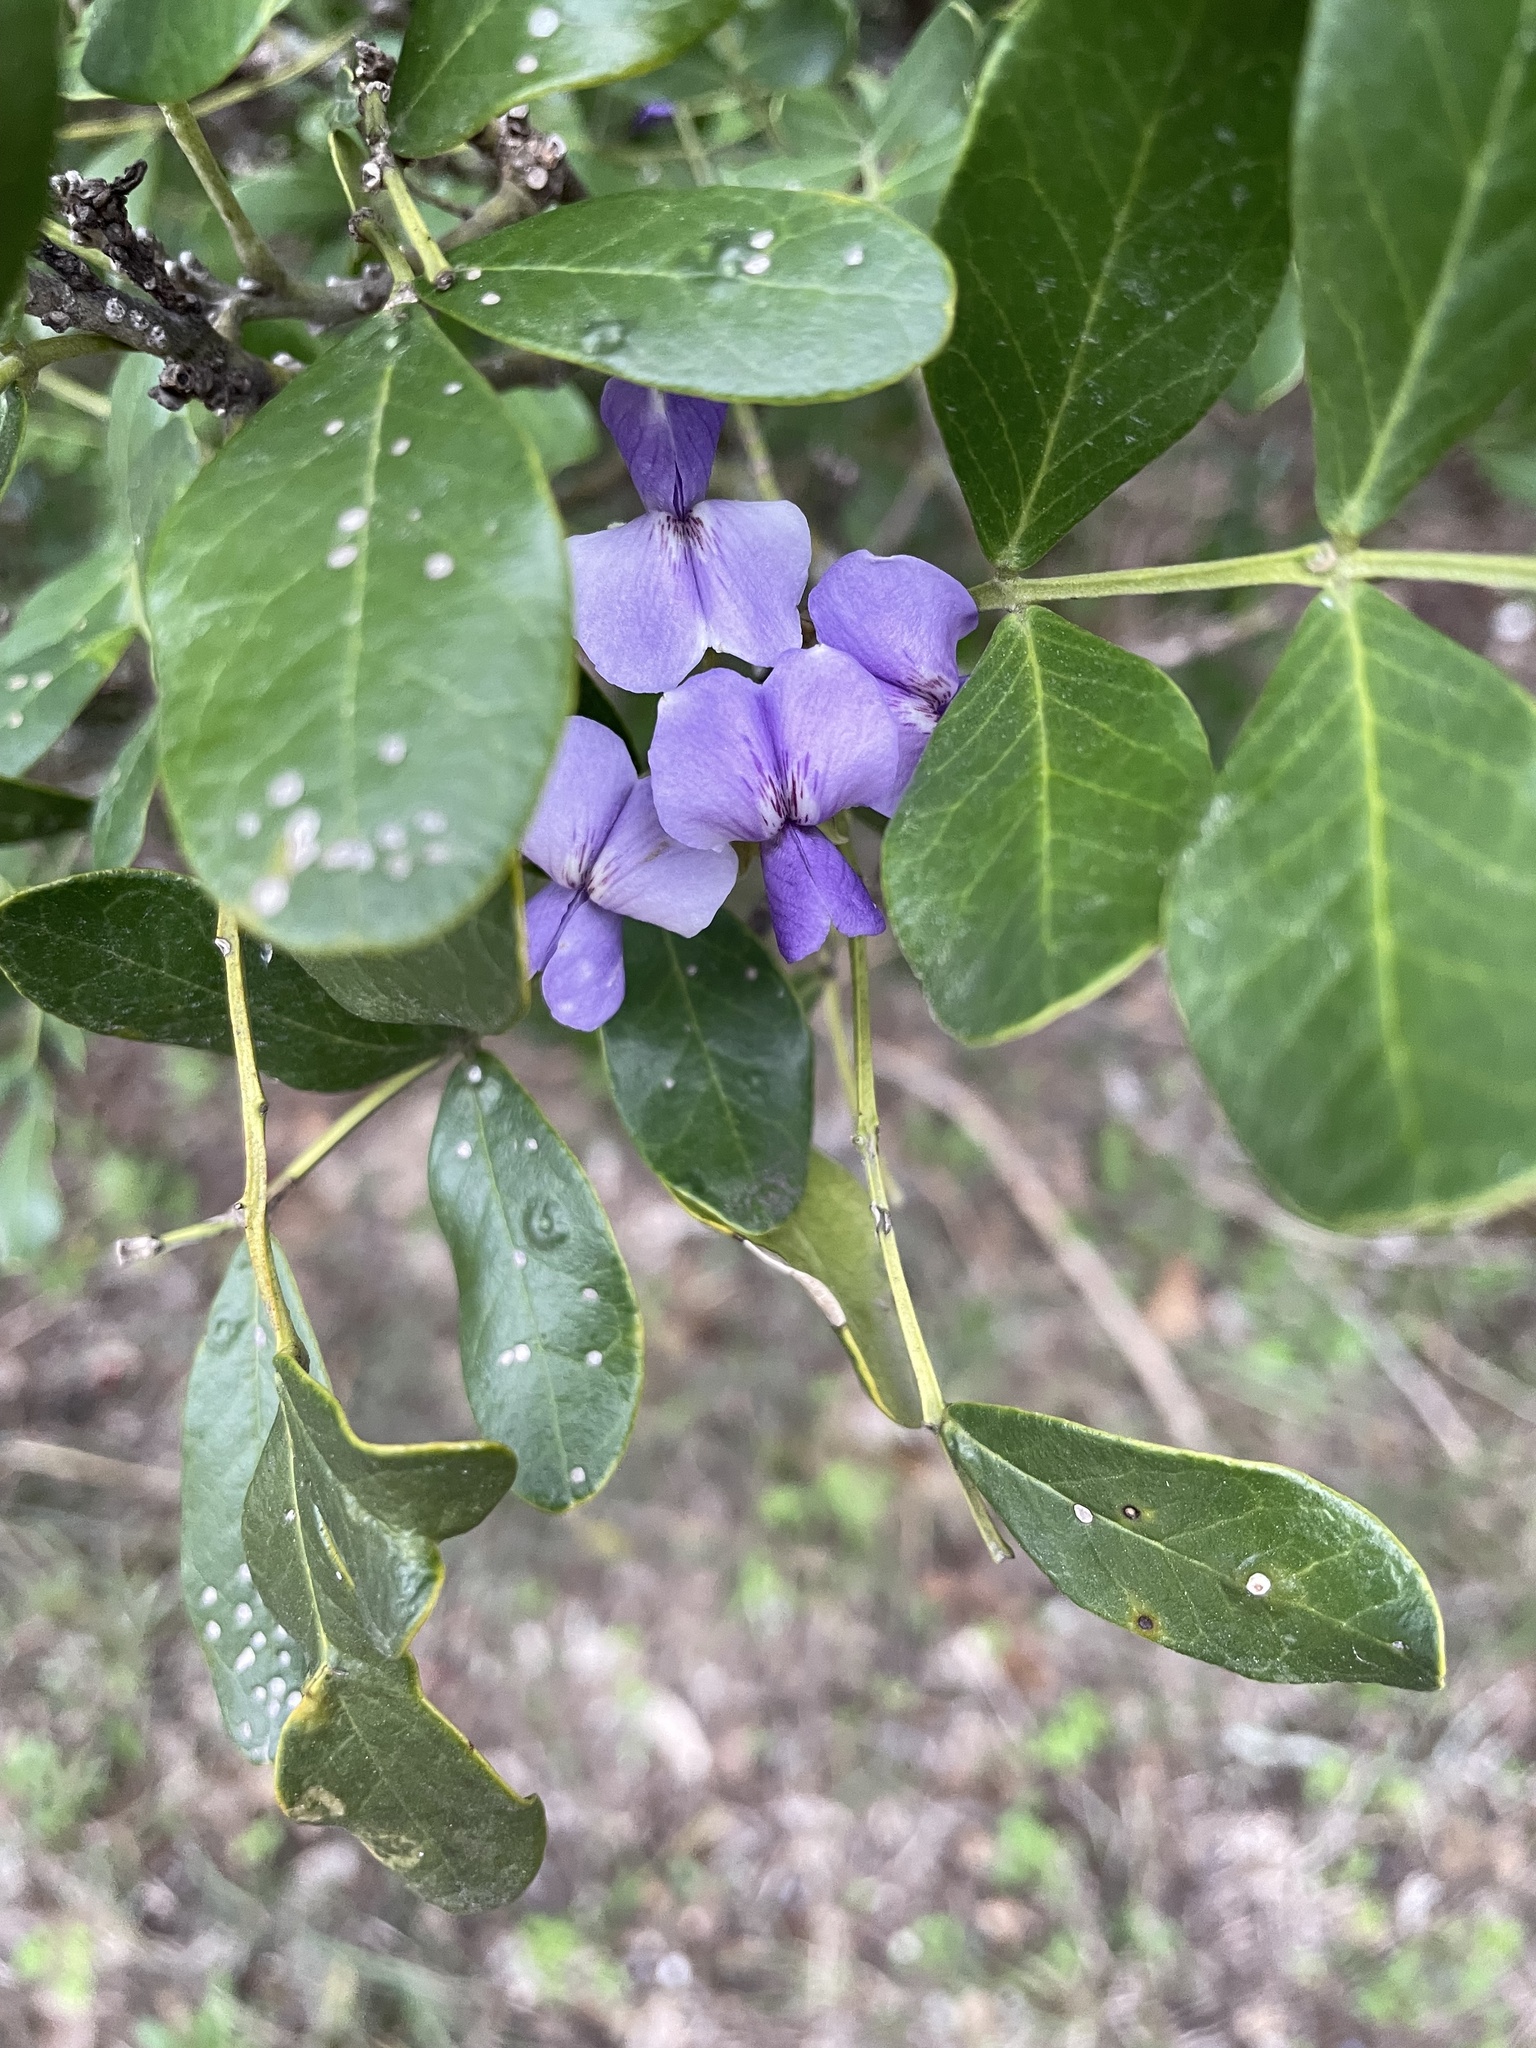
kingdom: Plantae
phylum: Tracheophyta
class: Magnoliopsida
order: Fabales
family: Fabaceae
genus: Dermatophyllum
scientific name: Dermatophyllum secundiflorum
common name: Texas-mountain-laurel
